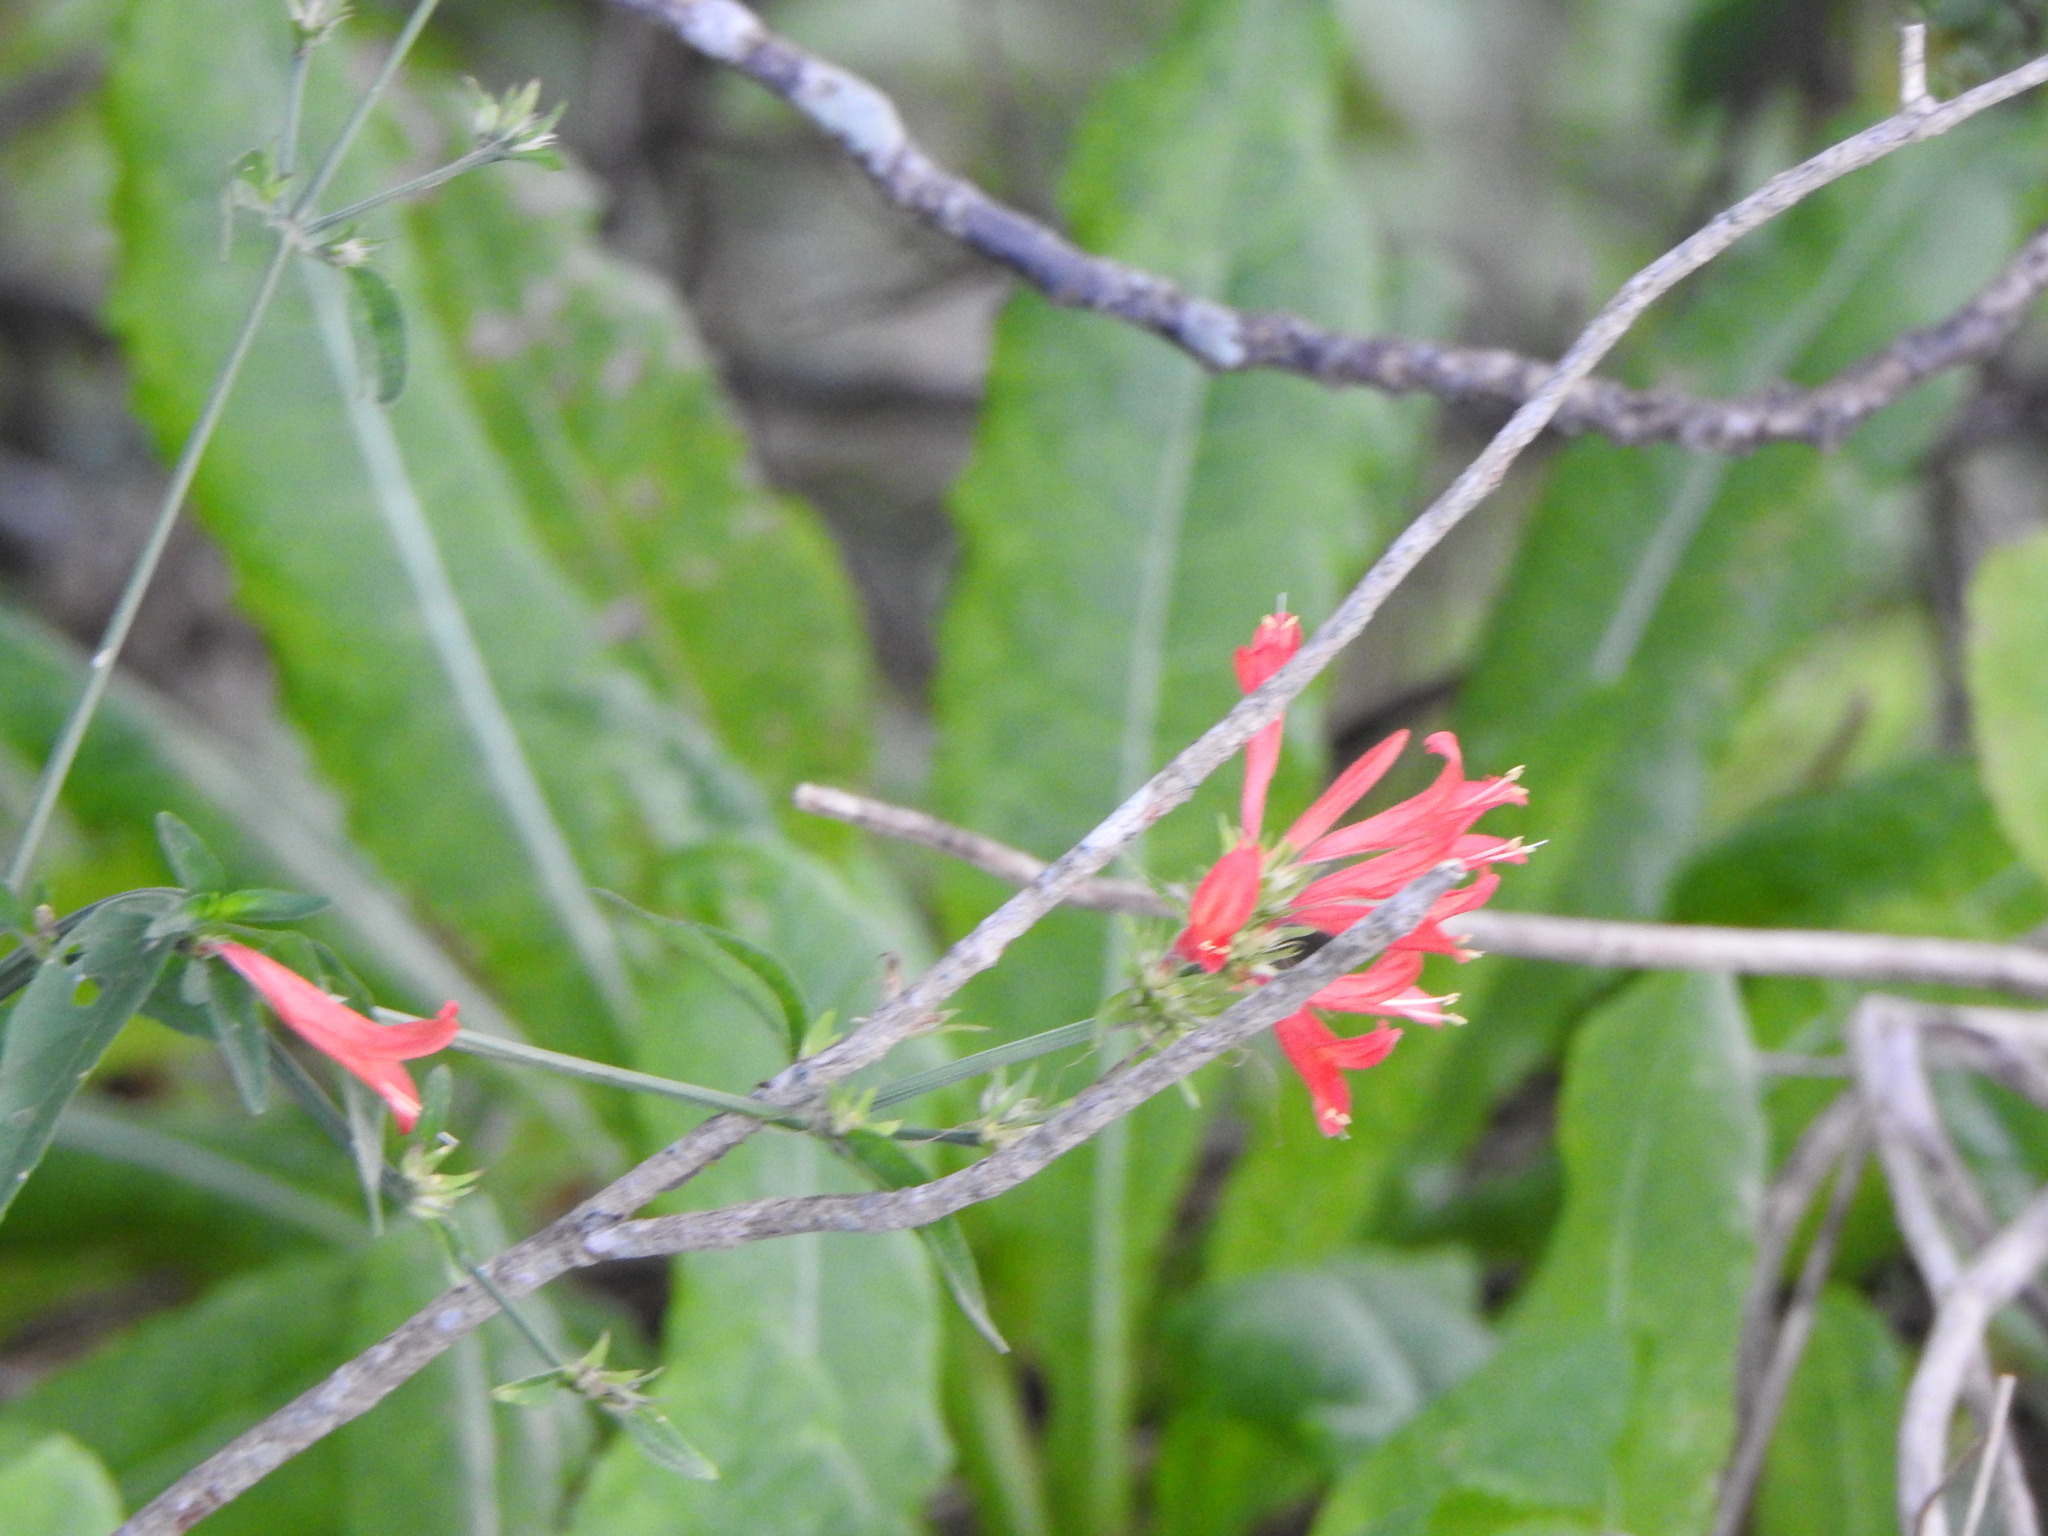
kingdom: Plantae
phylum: Tracheophyta
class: Magnoliopsida
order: Lamiales
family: Acanthaceae
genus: Dicliptera
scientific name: Dicliptera squarrosa
